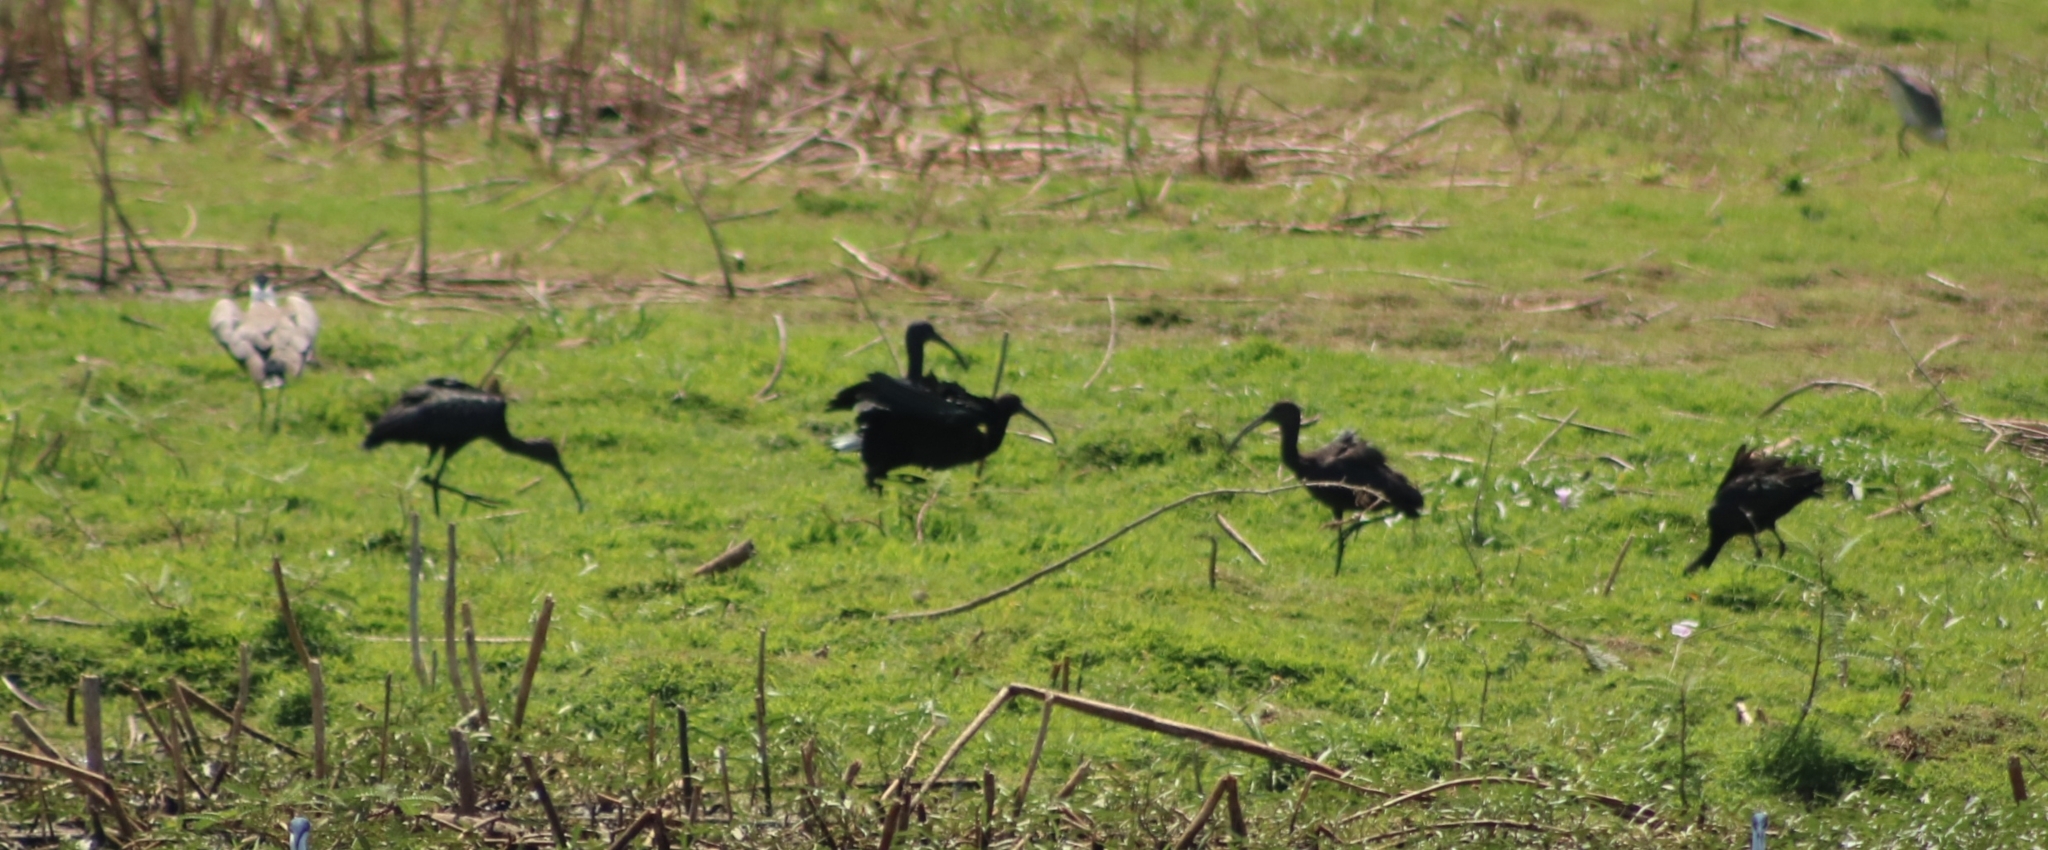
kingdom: Animalia
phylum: Chordata
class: Aves
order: Pelecaniformes
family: Threskiornithidae
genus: Plegadis
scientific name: Plegadis falcinellus
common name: Glossy ibis
